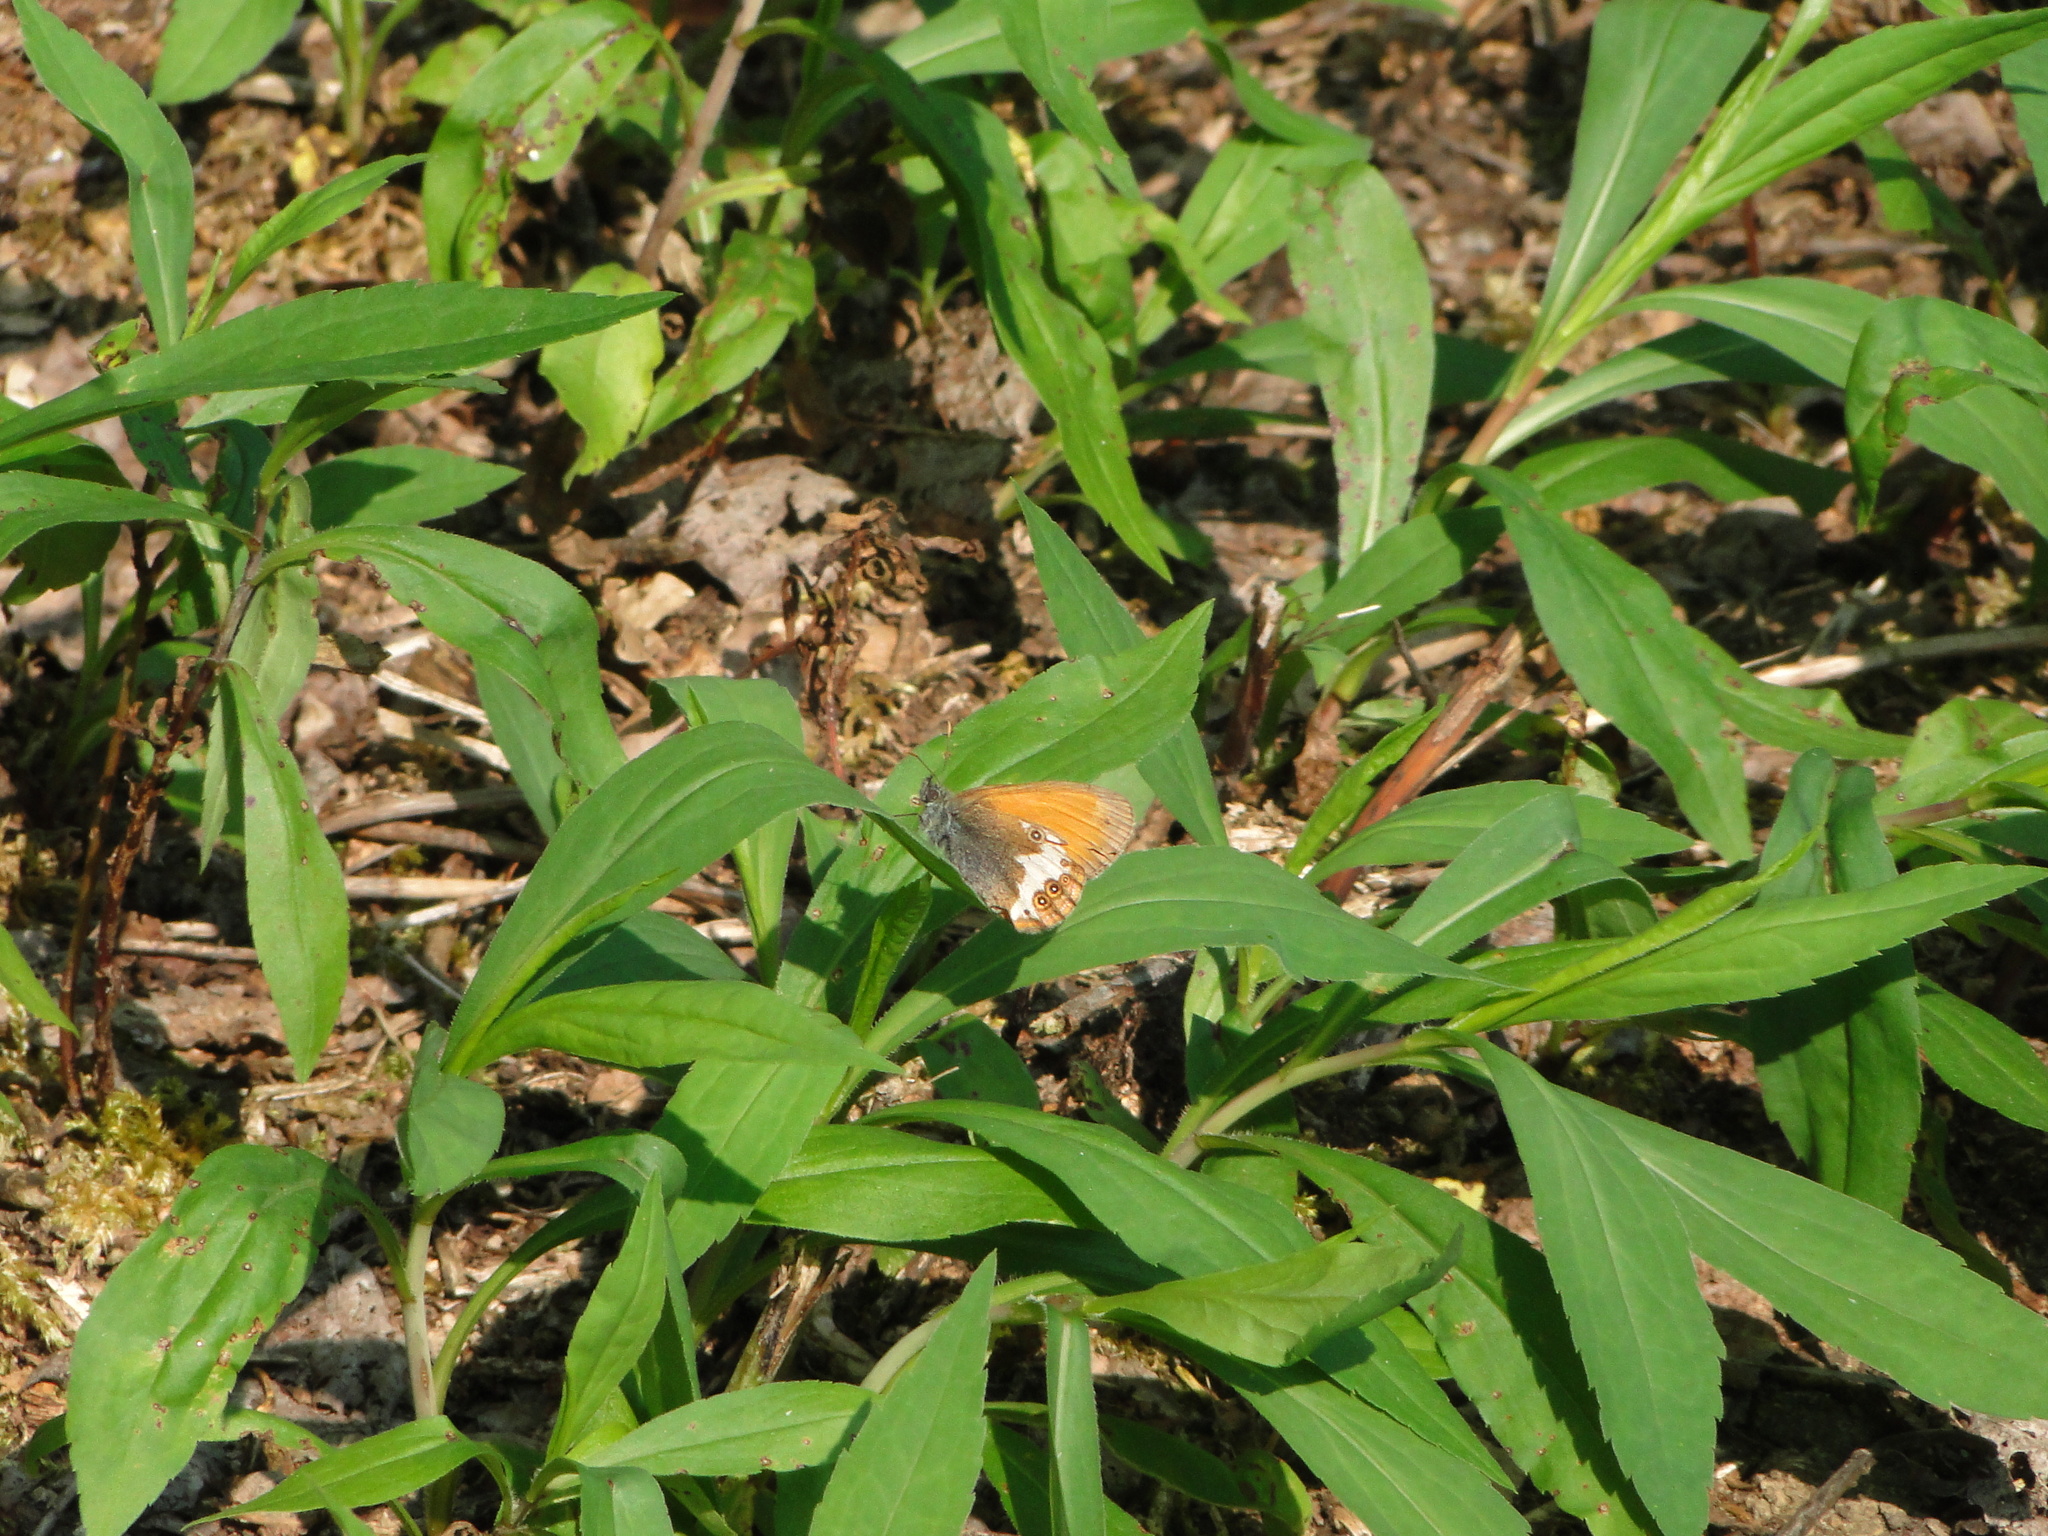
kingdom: Animalia
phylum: Arthropoda
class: Insecta
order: Lepidoptera
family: Nymphalidae
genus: Coenonympha
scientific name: Coenonympha arcania
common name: Pearly heath
